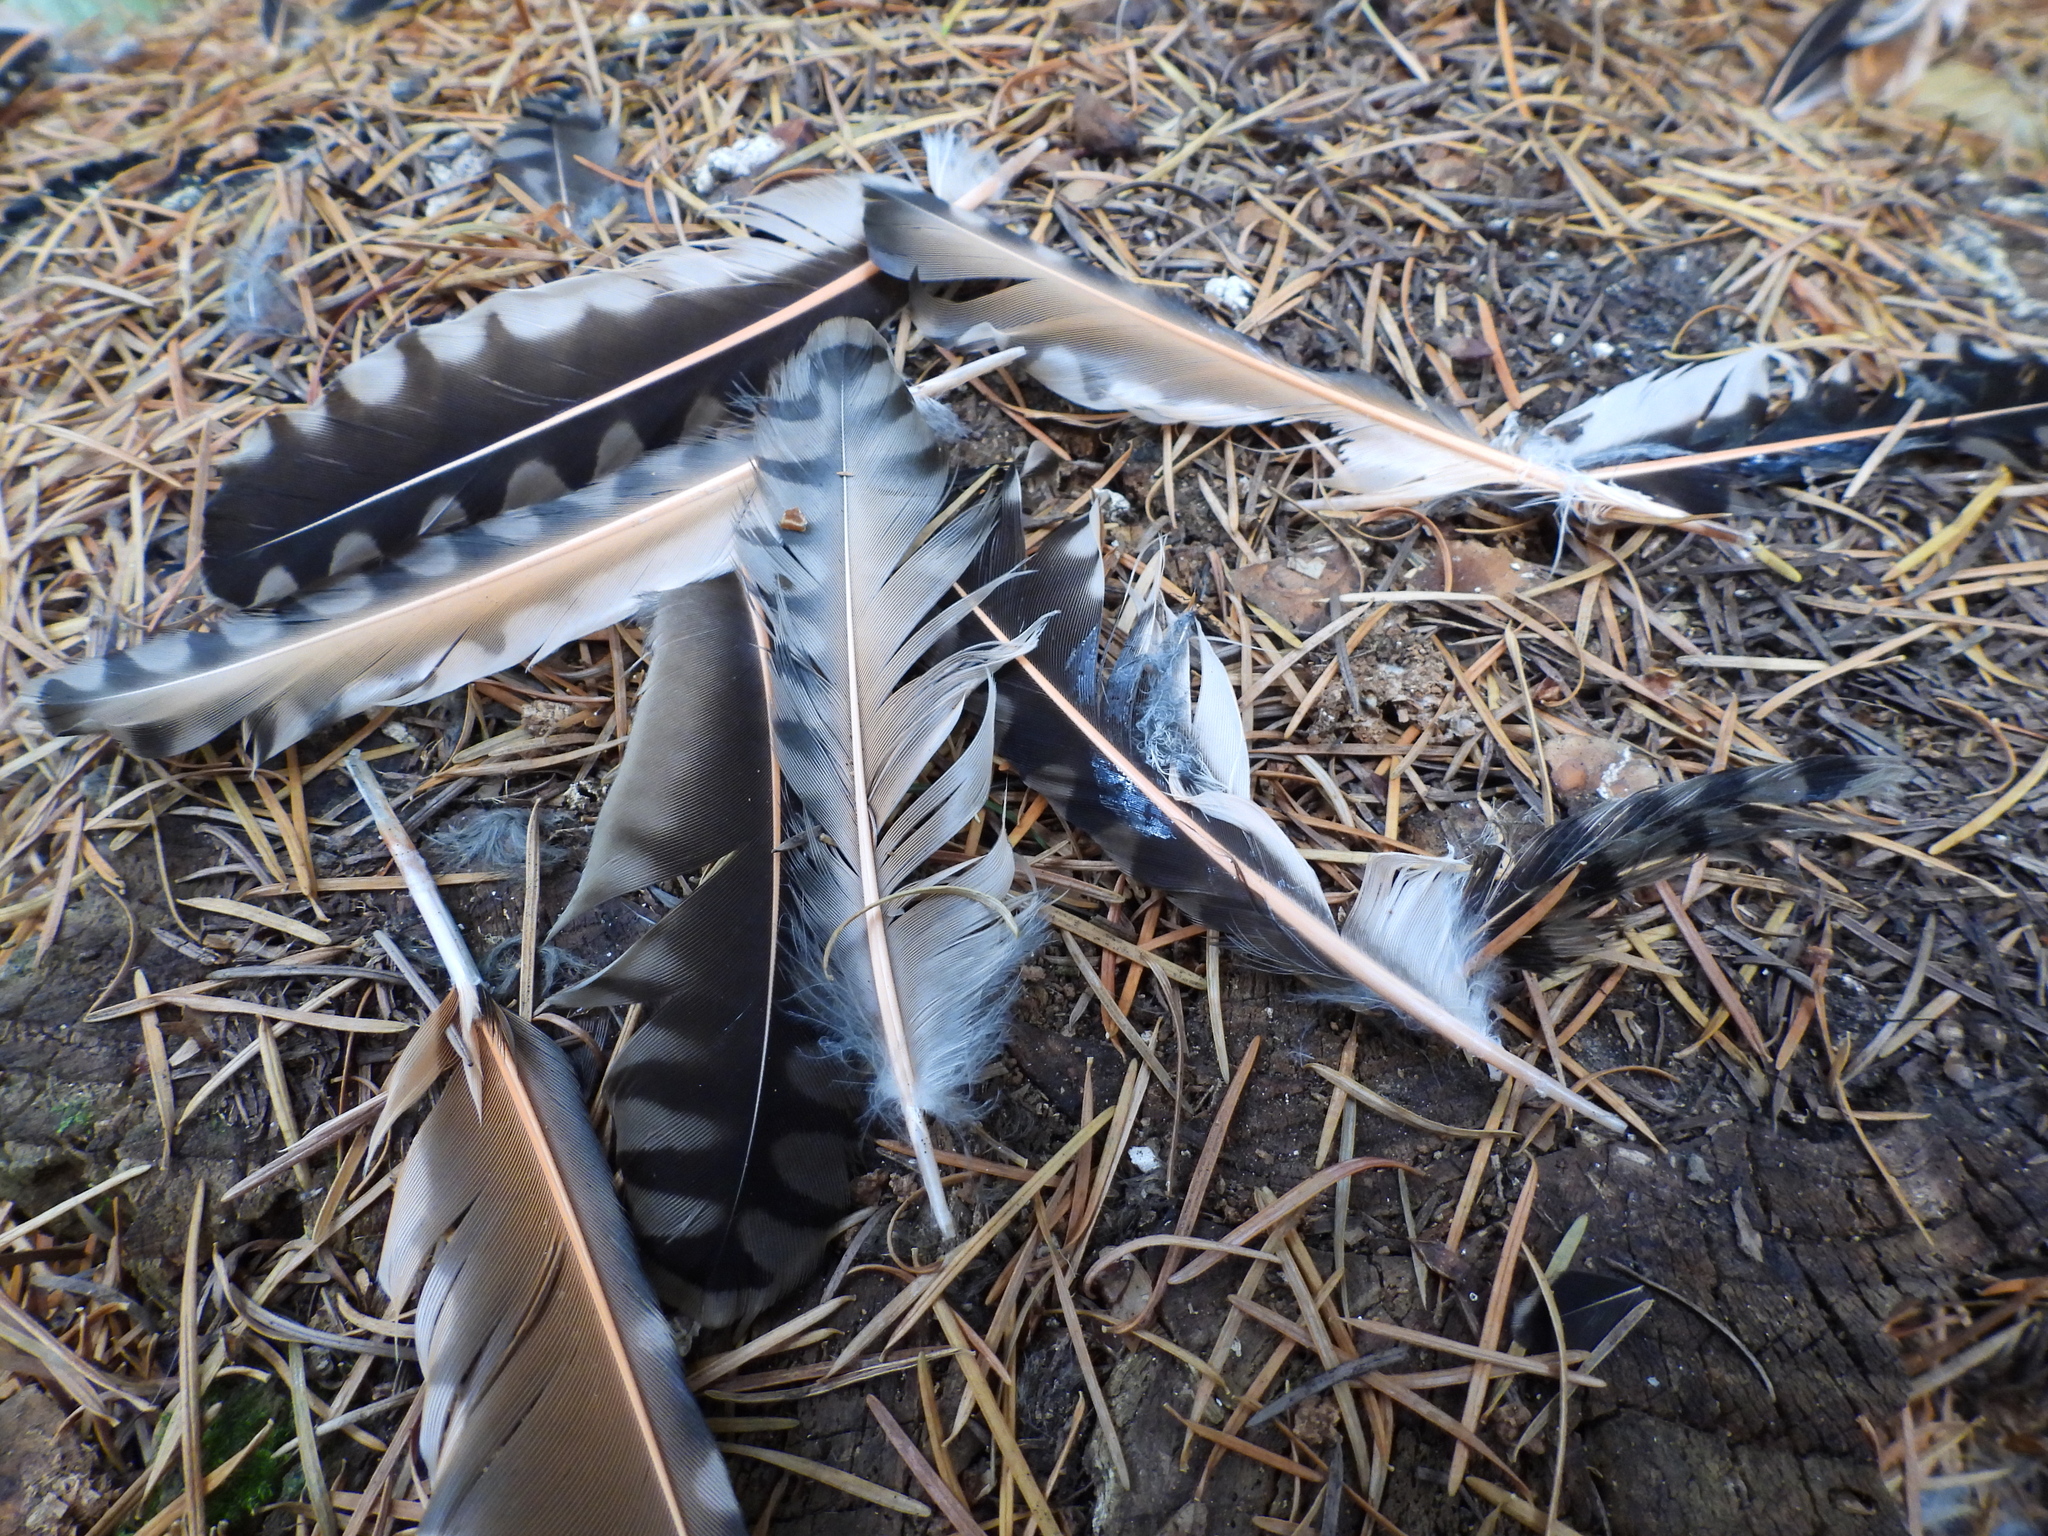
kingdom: Animalia
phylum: Chordata
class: Aves
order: Piciformes
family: Picidae
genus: Colaptes
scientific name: Colaptes auratus
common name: Northern flicker
